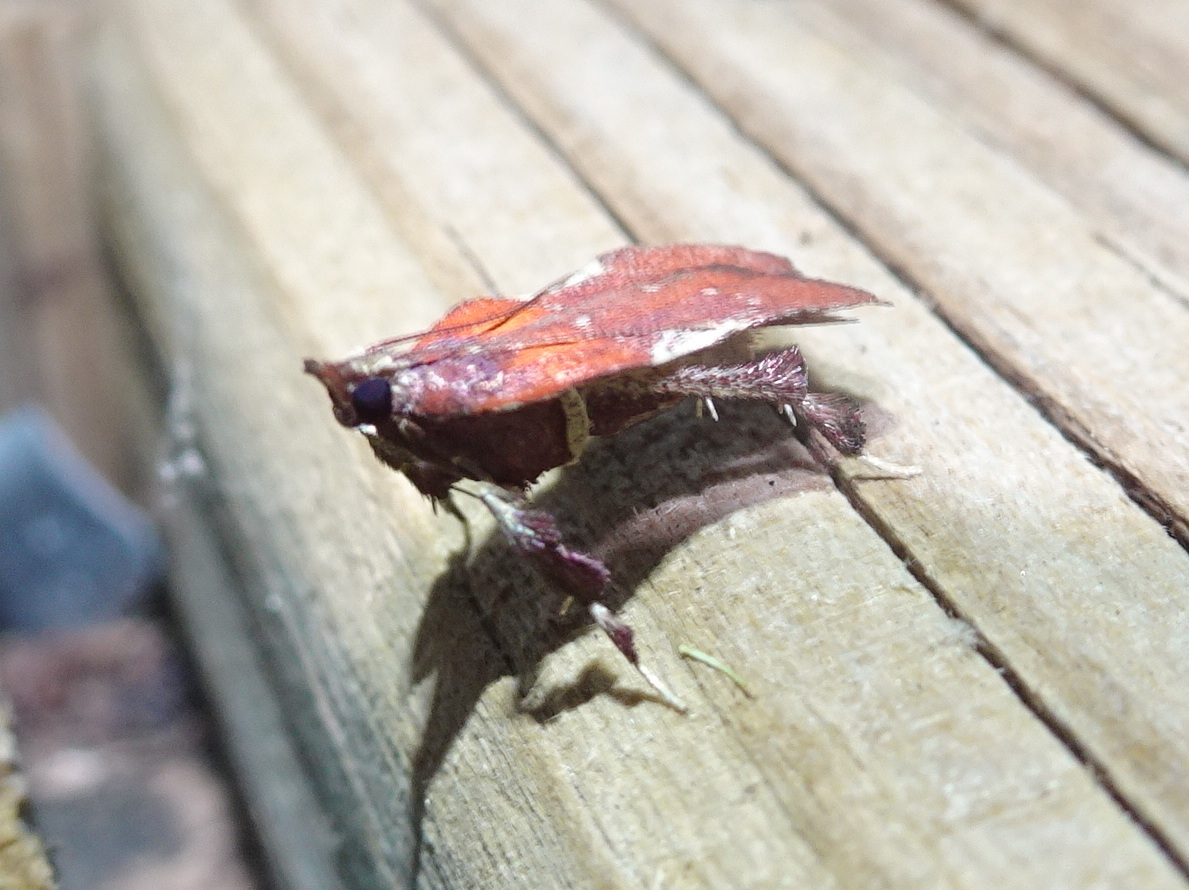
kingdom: Animalia
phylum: Arthropoda
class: Insecta
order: Lepidoptera
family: Pyralidae
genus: Galasa
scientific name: Galasa nigrinodis
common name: Boxwood leaftier moth
